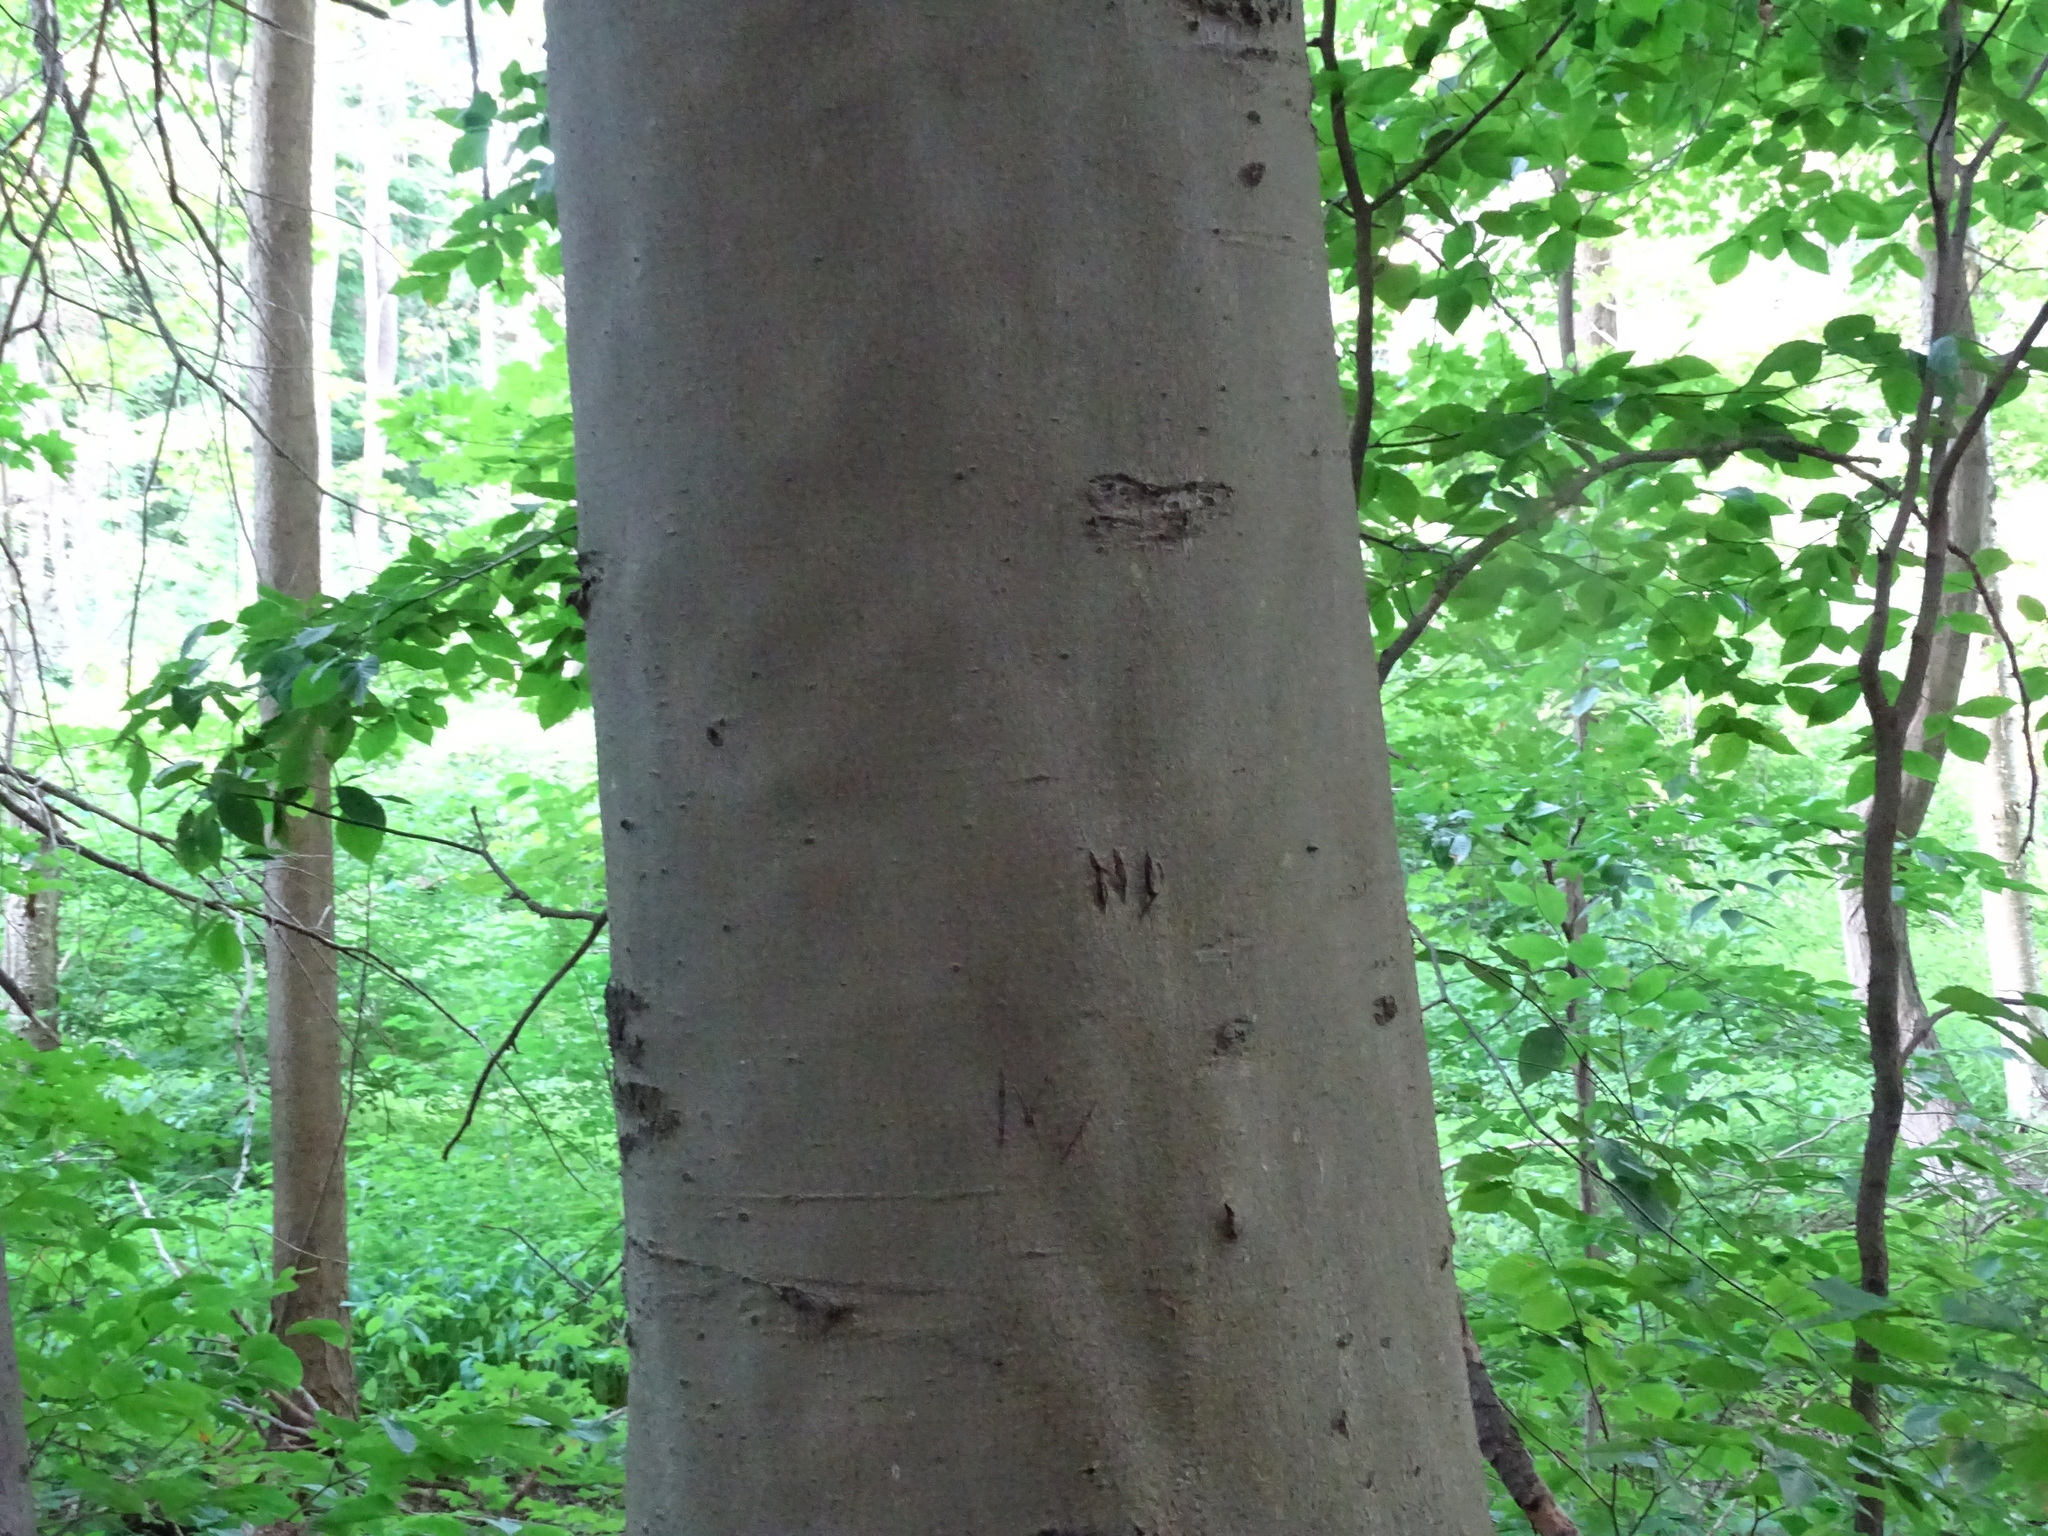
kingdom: Plantae
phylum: Tracheophyta
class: Magnoliopsida
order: Fagales
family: Fagaceae
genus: Fagus
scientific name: Fagus grandifolia
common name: American beech
